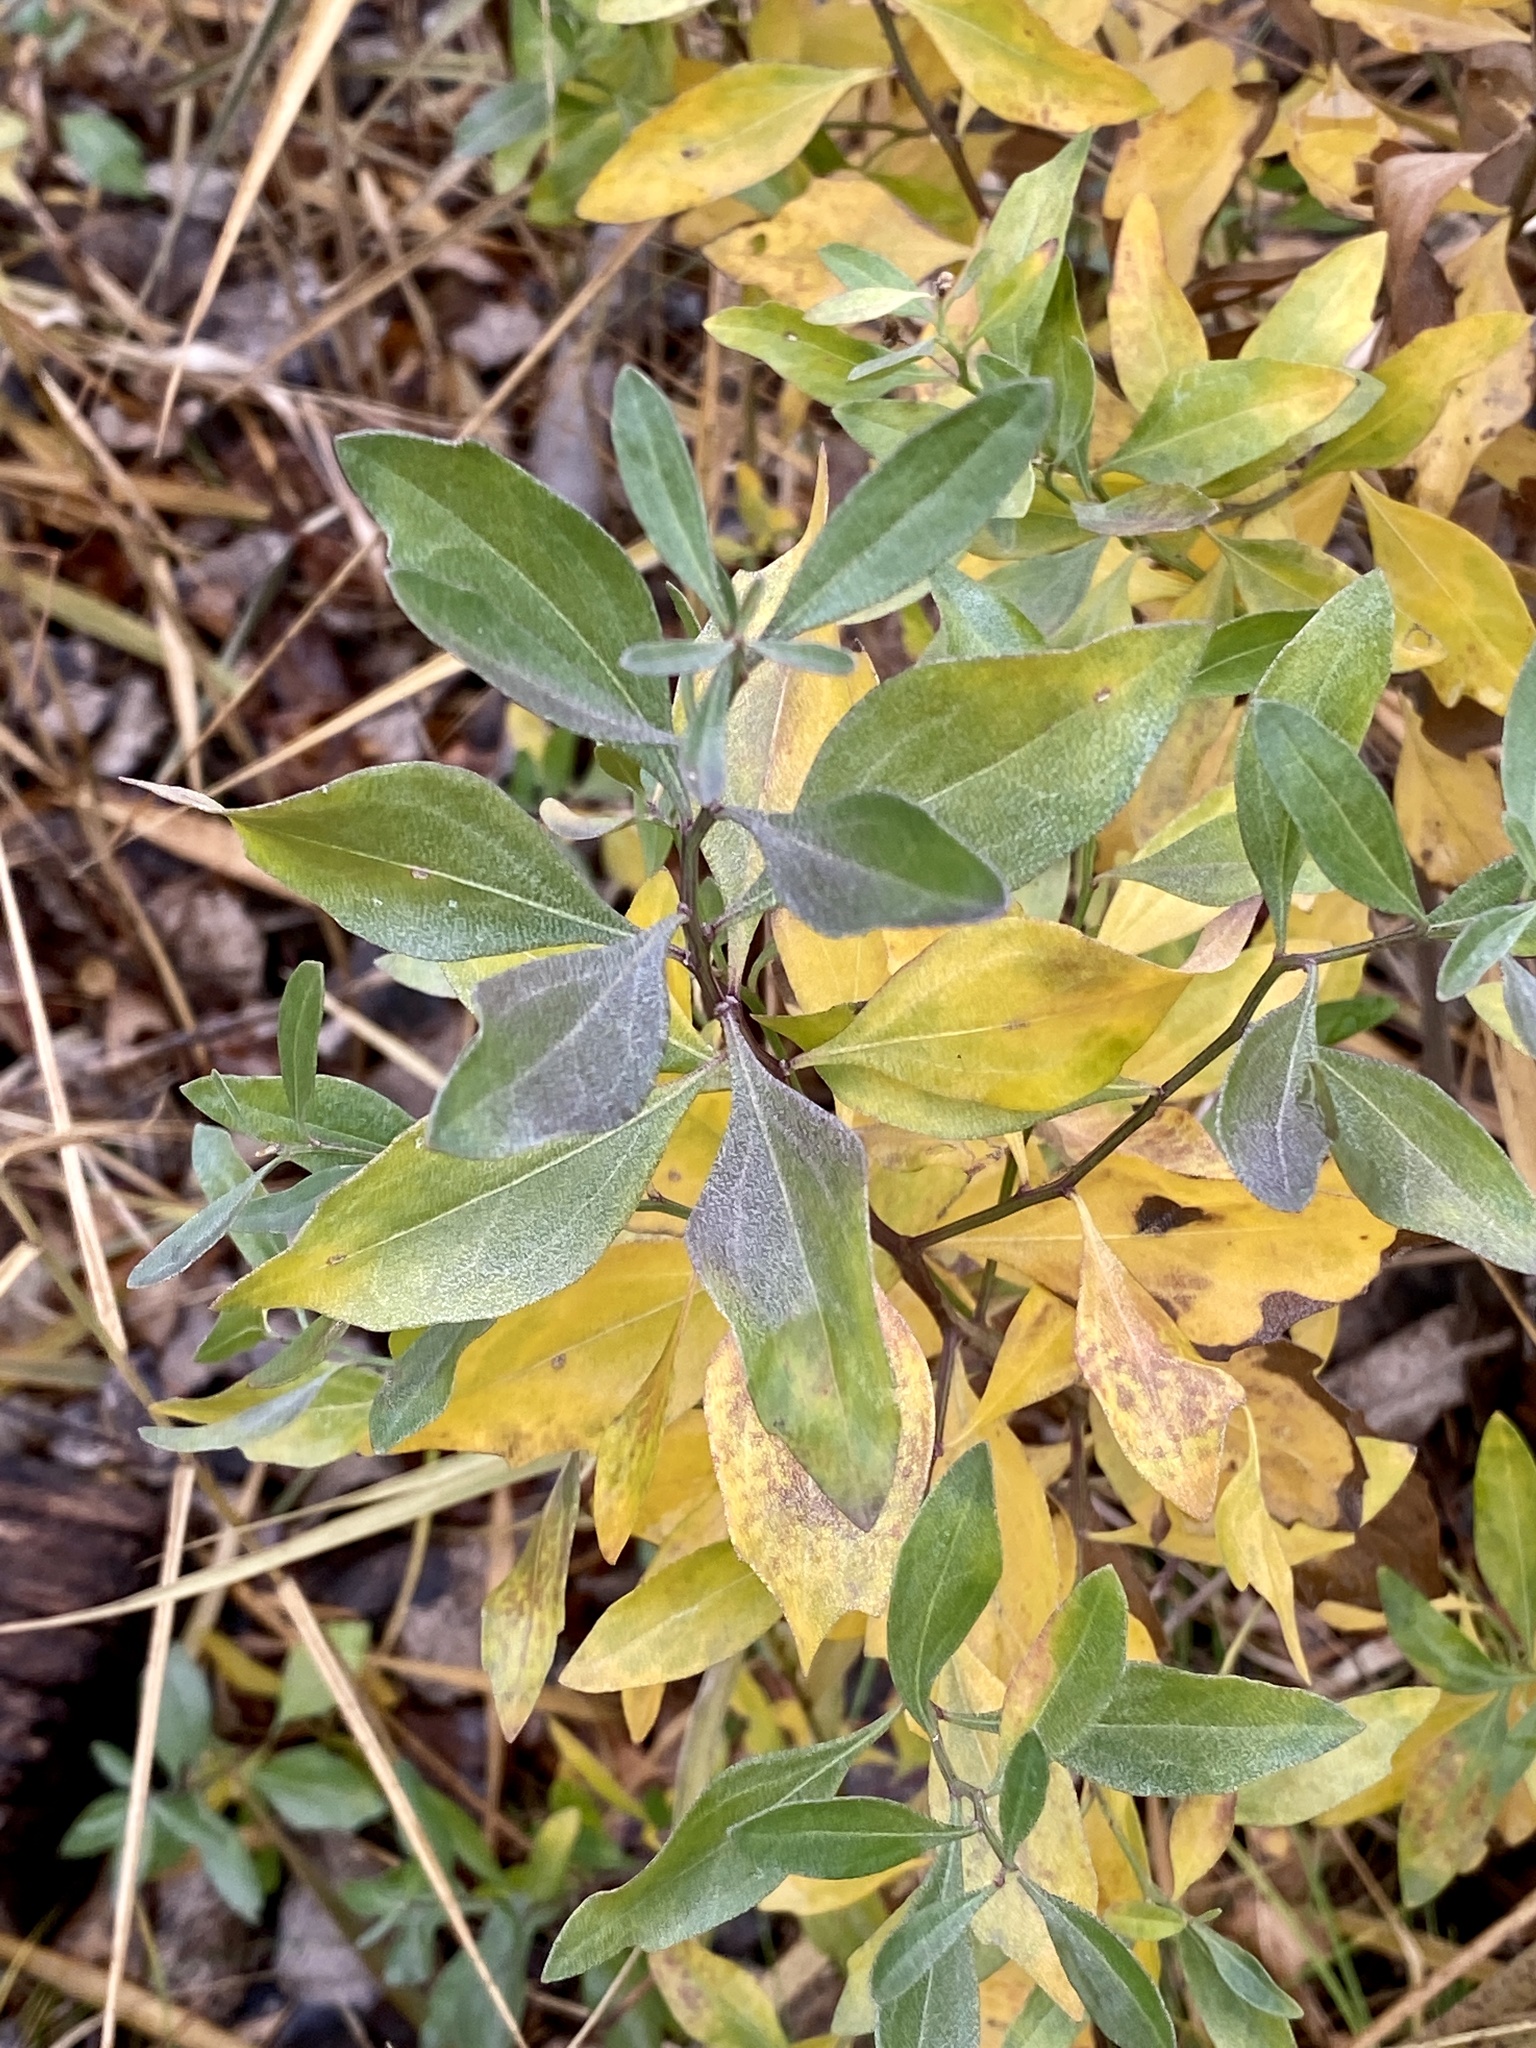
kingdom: Plantae
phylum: Tracheophyta
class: Magnoliopsida
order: Asterales
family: Asteraceae
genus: Baccharis
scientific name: Baccharis halimifolia
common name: Eastern baccharis
